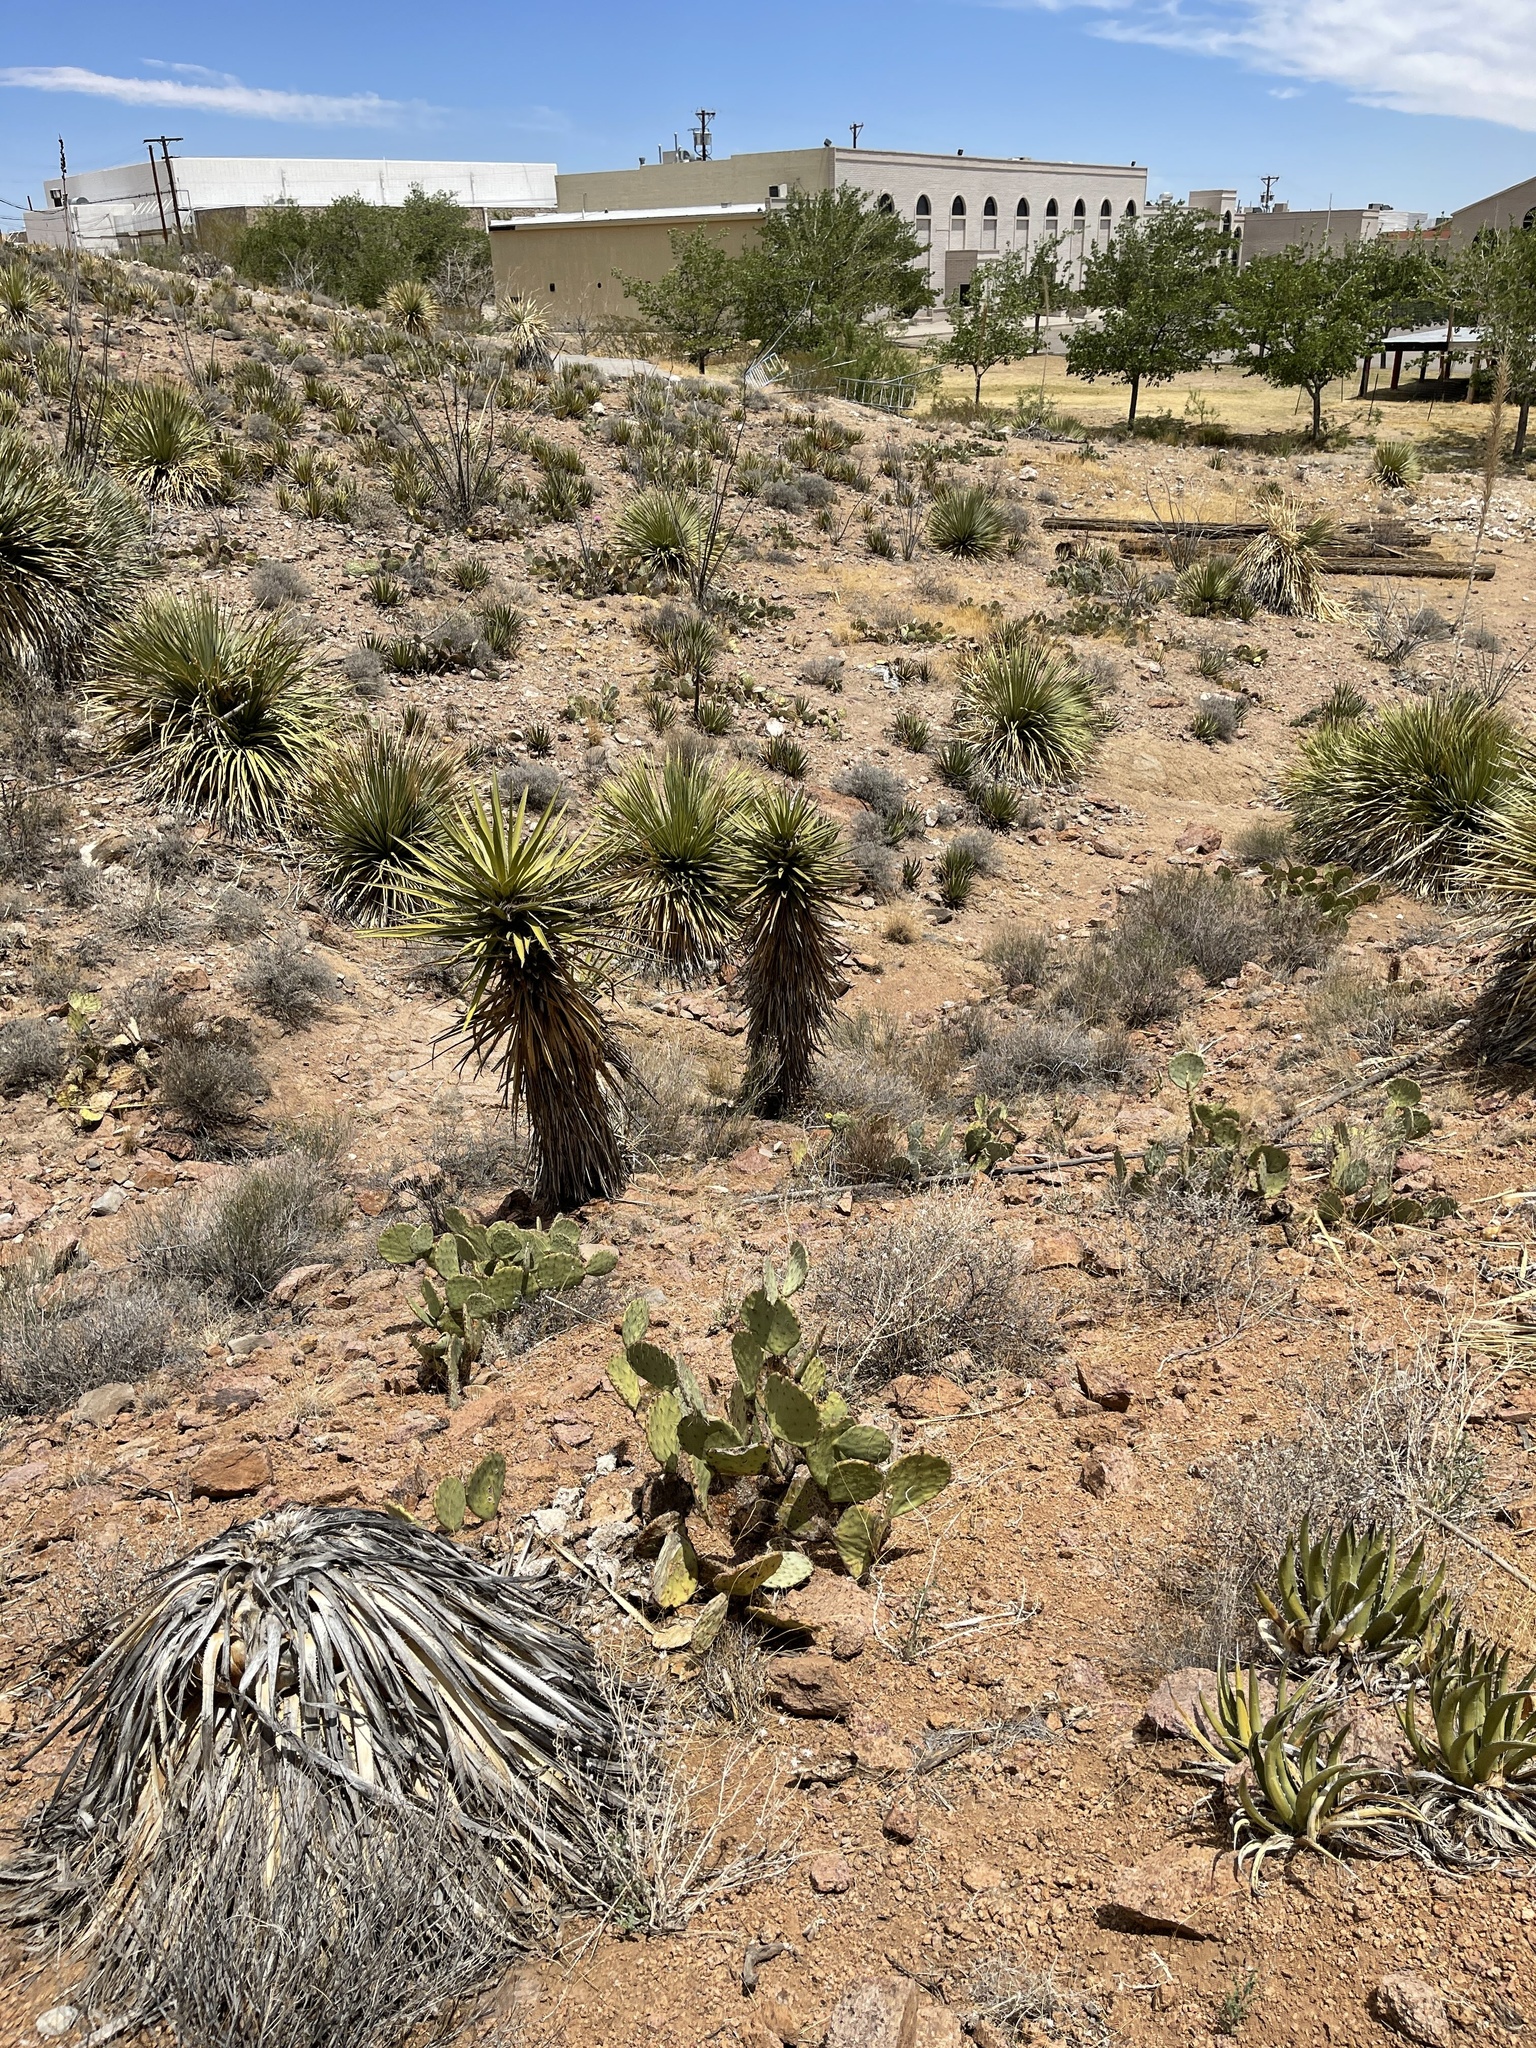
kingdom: Plantae
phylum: Tracheophyta
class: Liliopsida
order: Asparagales
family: Asparagaceae
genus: Yucca
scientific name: Yucca treculiana
